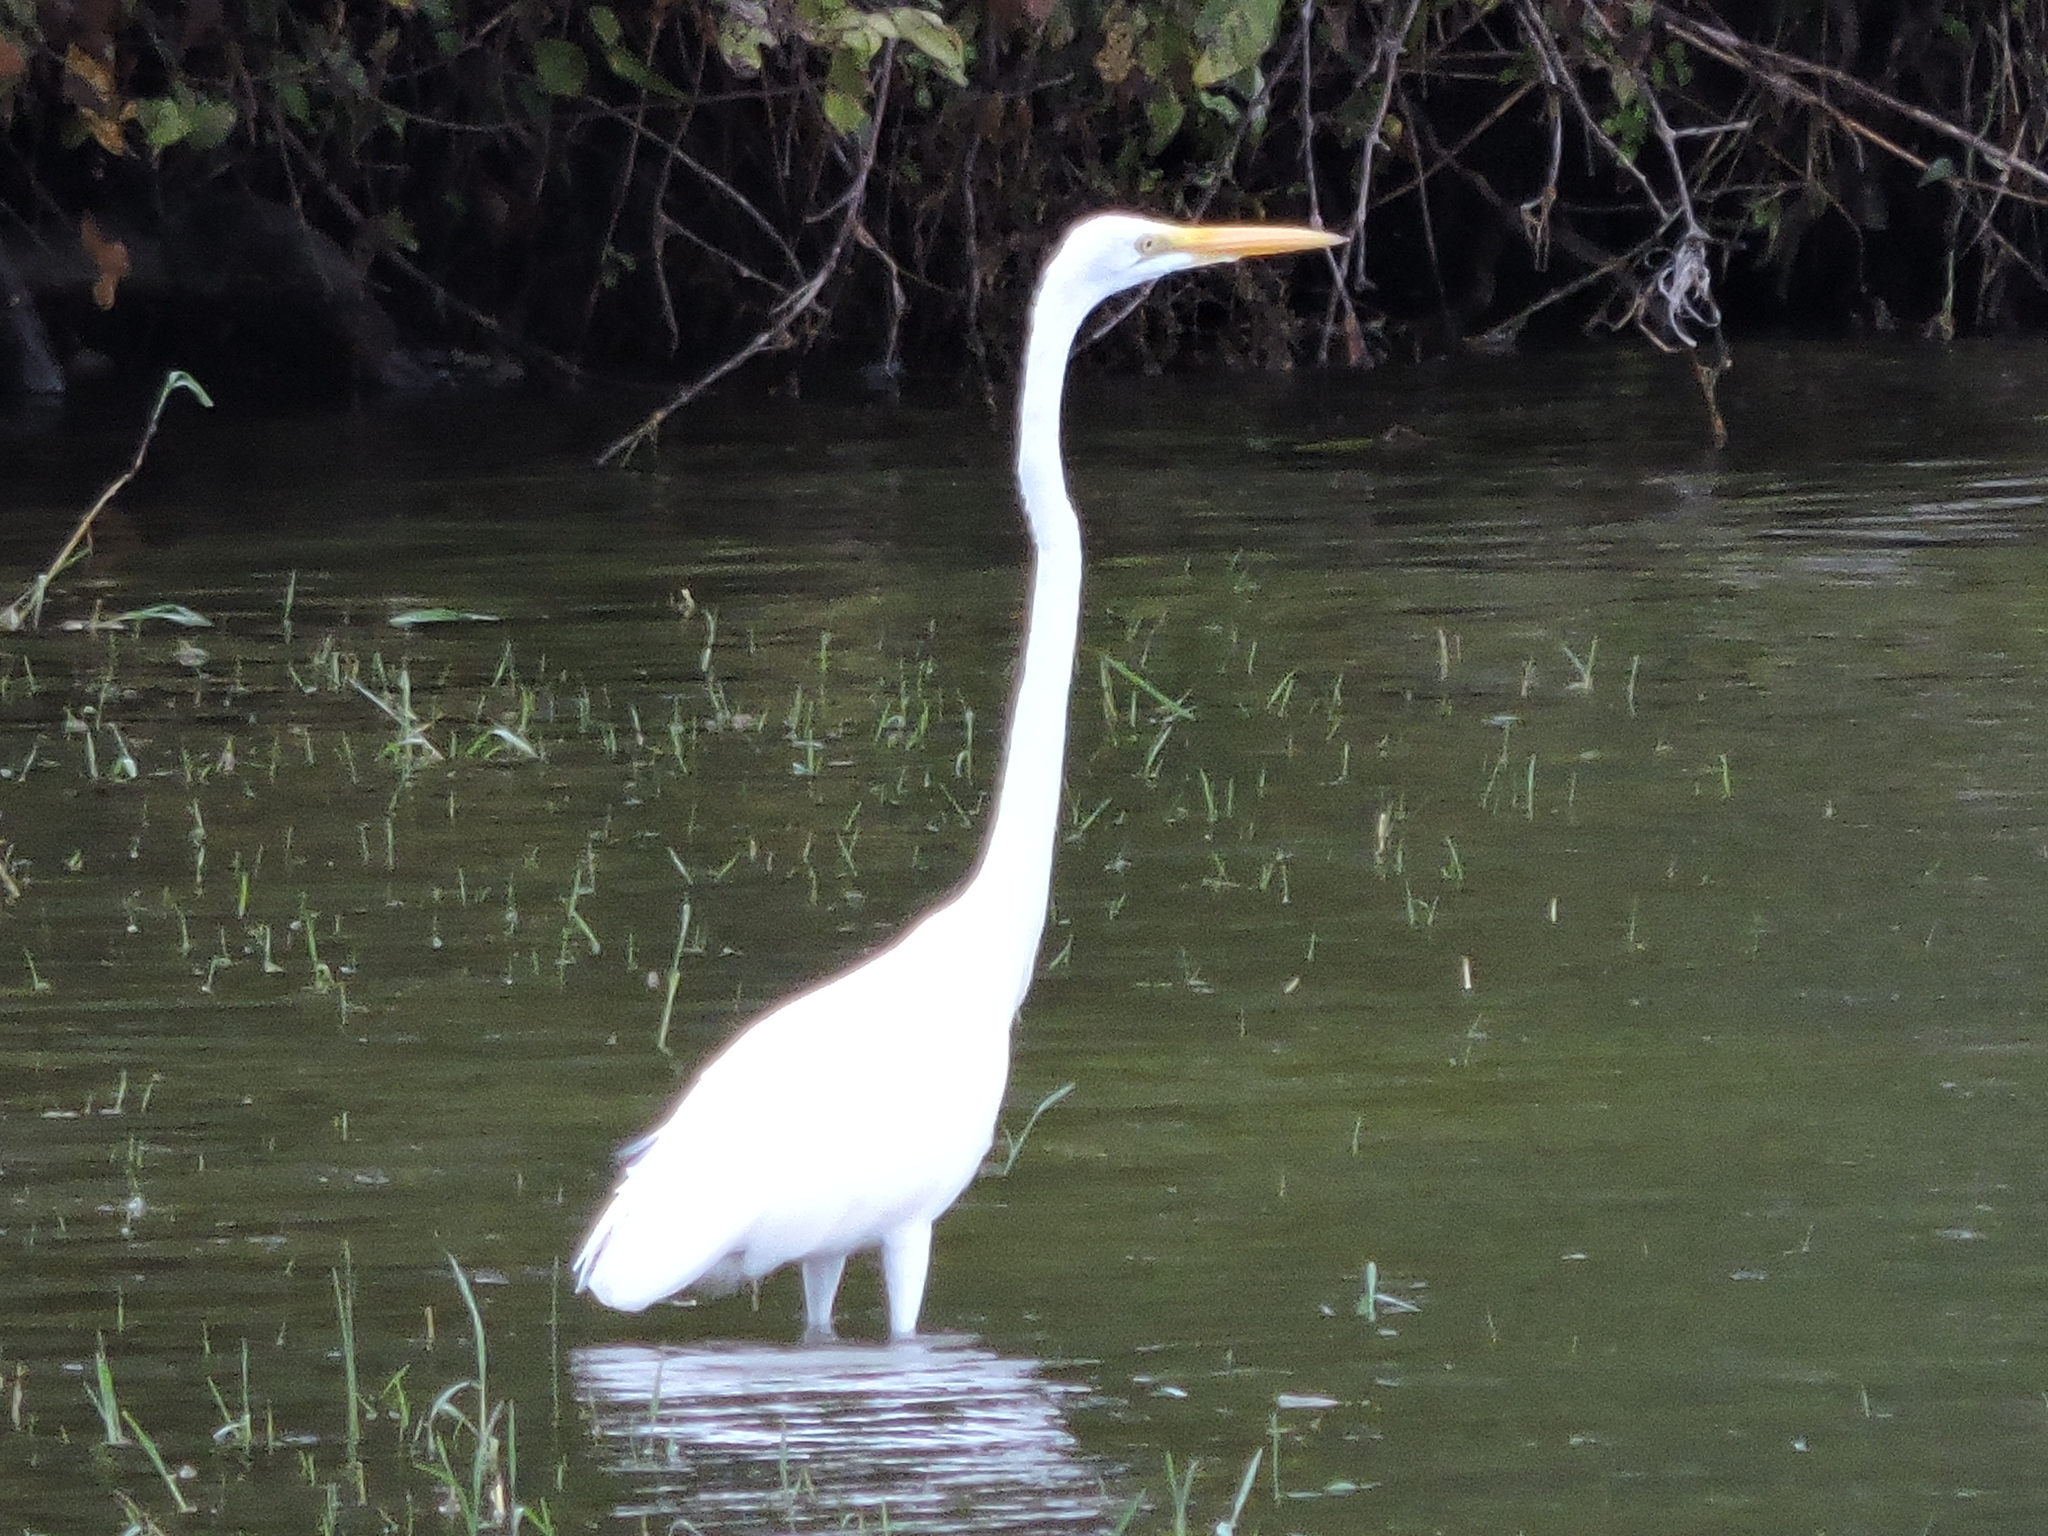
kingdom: Animalia
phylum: Chordata
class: Aves
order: Pelecaniformes
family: Ardeidae
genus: Ardea
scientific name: Ardea alba
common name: Great egret
